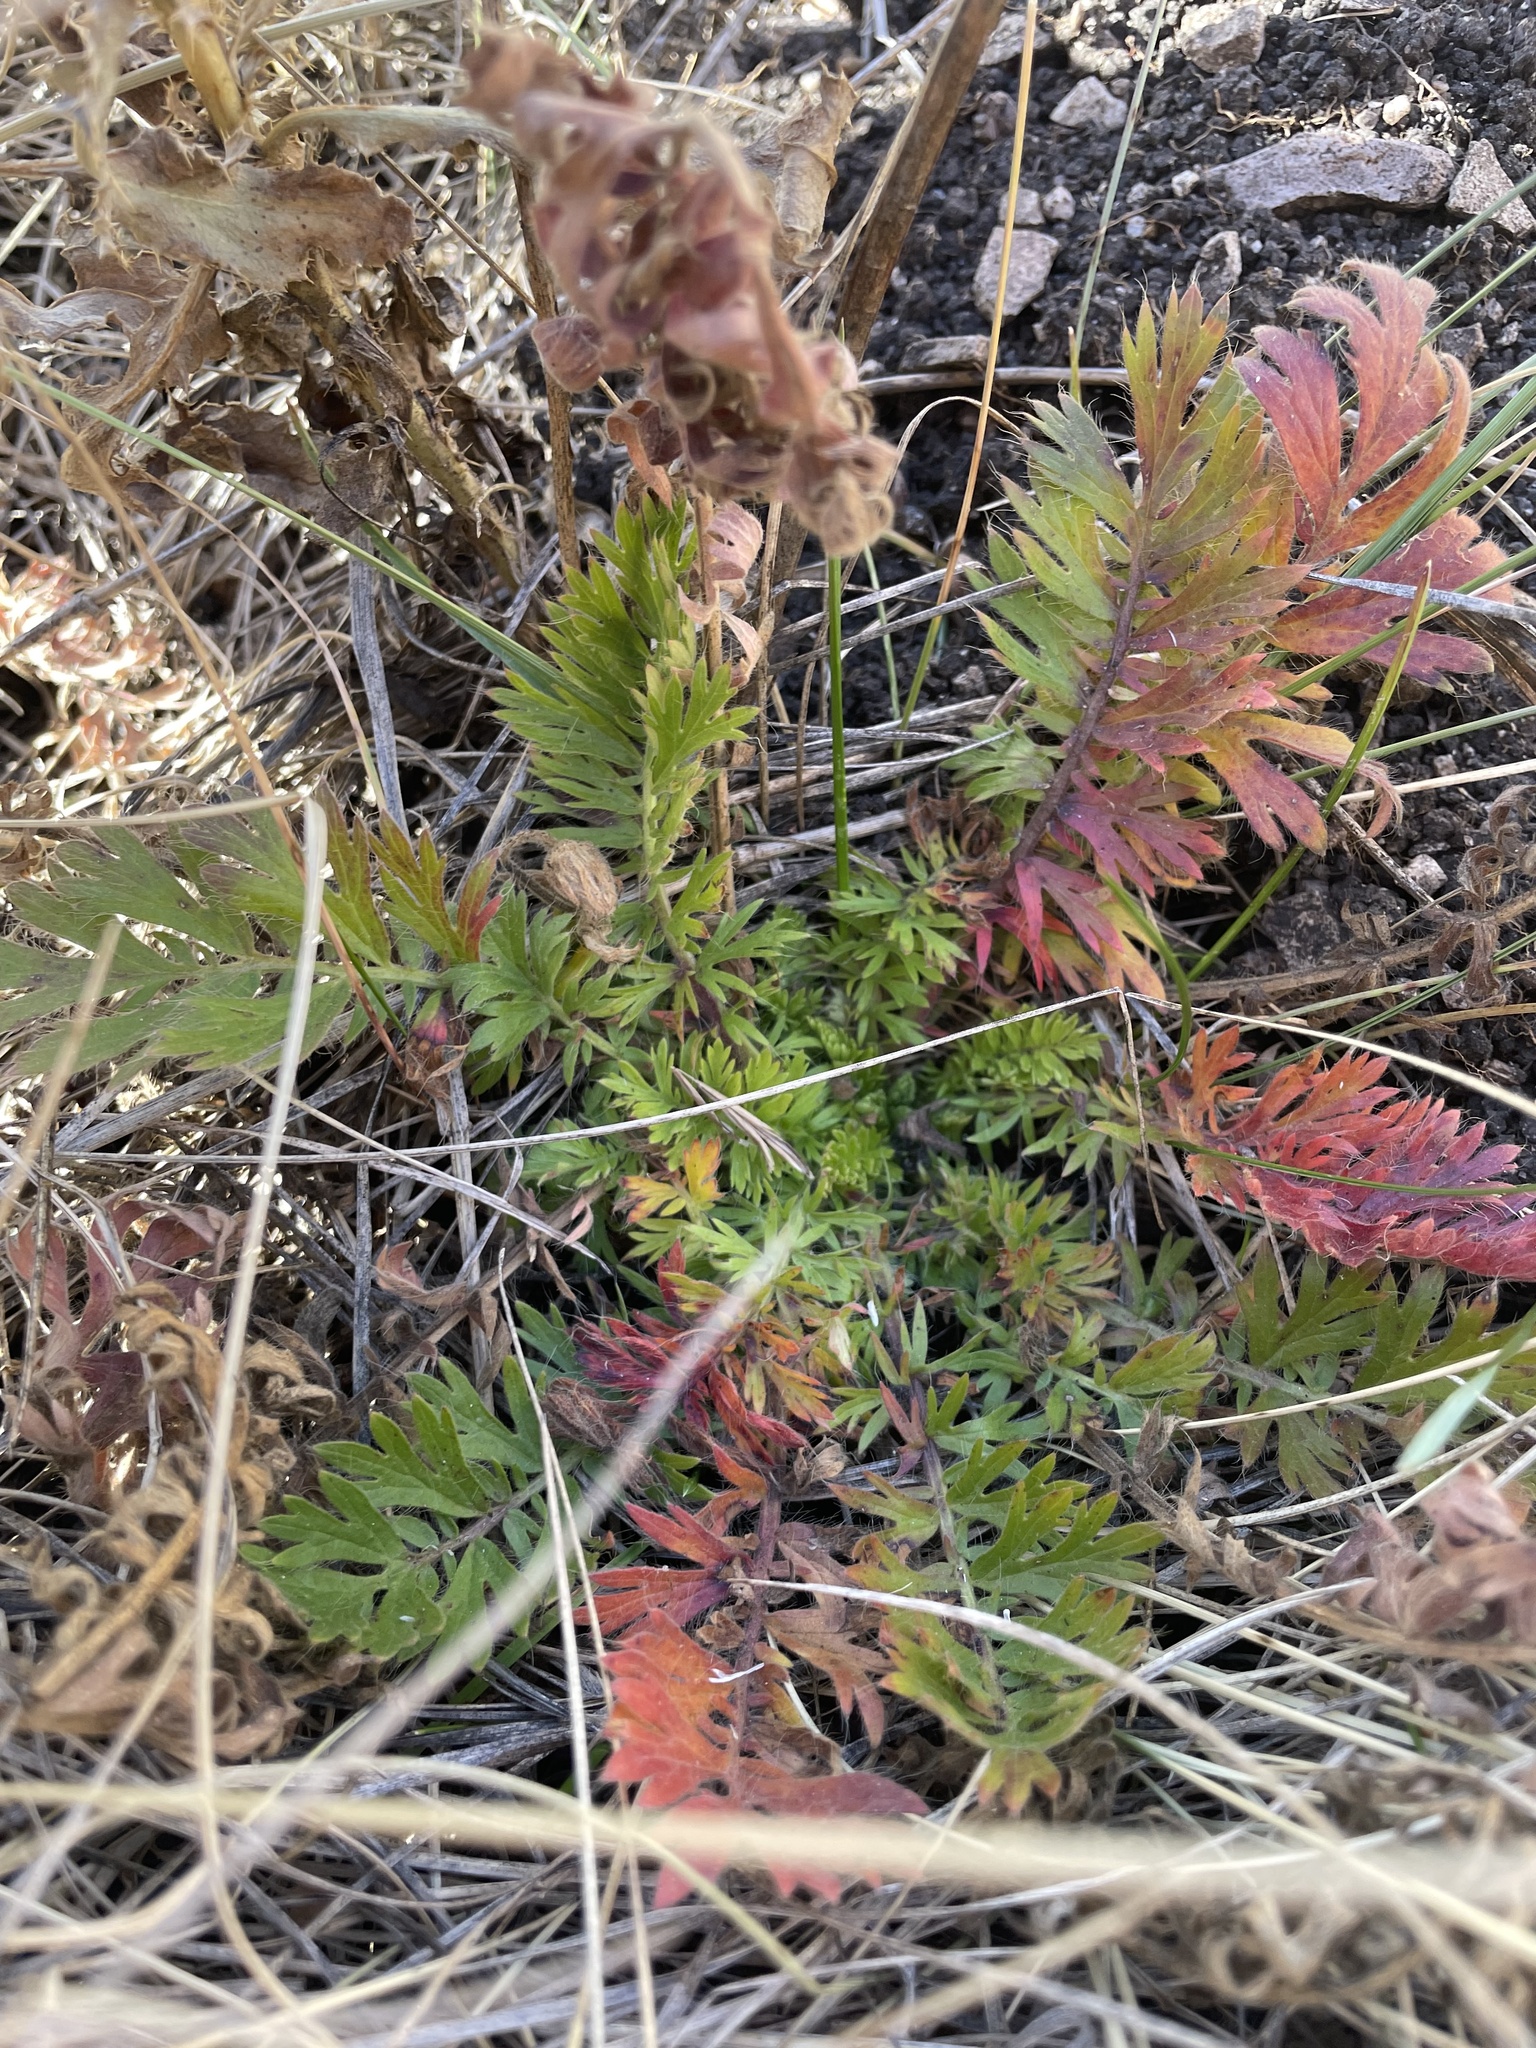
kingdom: Plantae
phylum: Tracheophyta
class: Magnoliopsida
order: Rosales
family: Rosaceae
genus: Geum
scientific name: Geum triflorum
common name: Old man's whiskers
